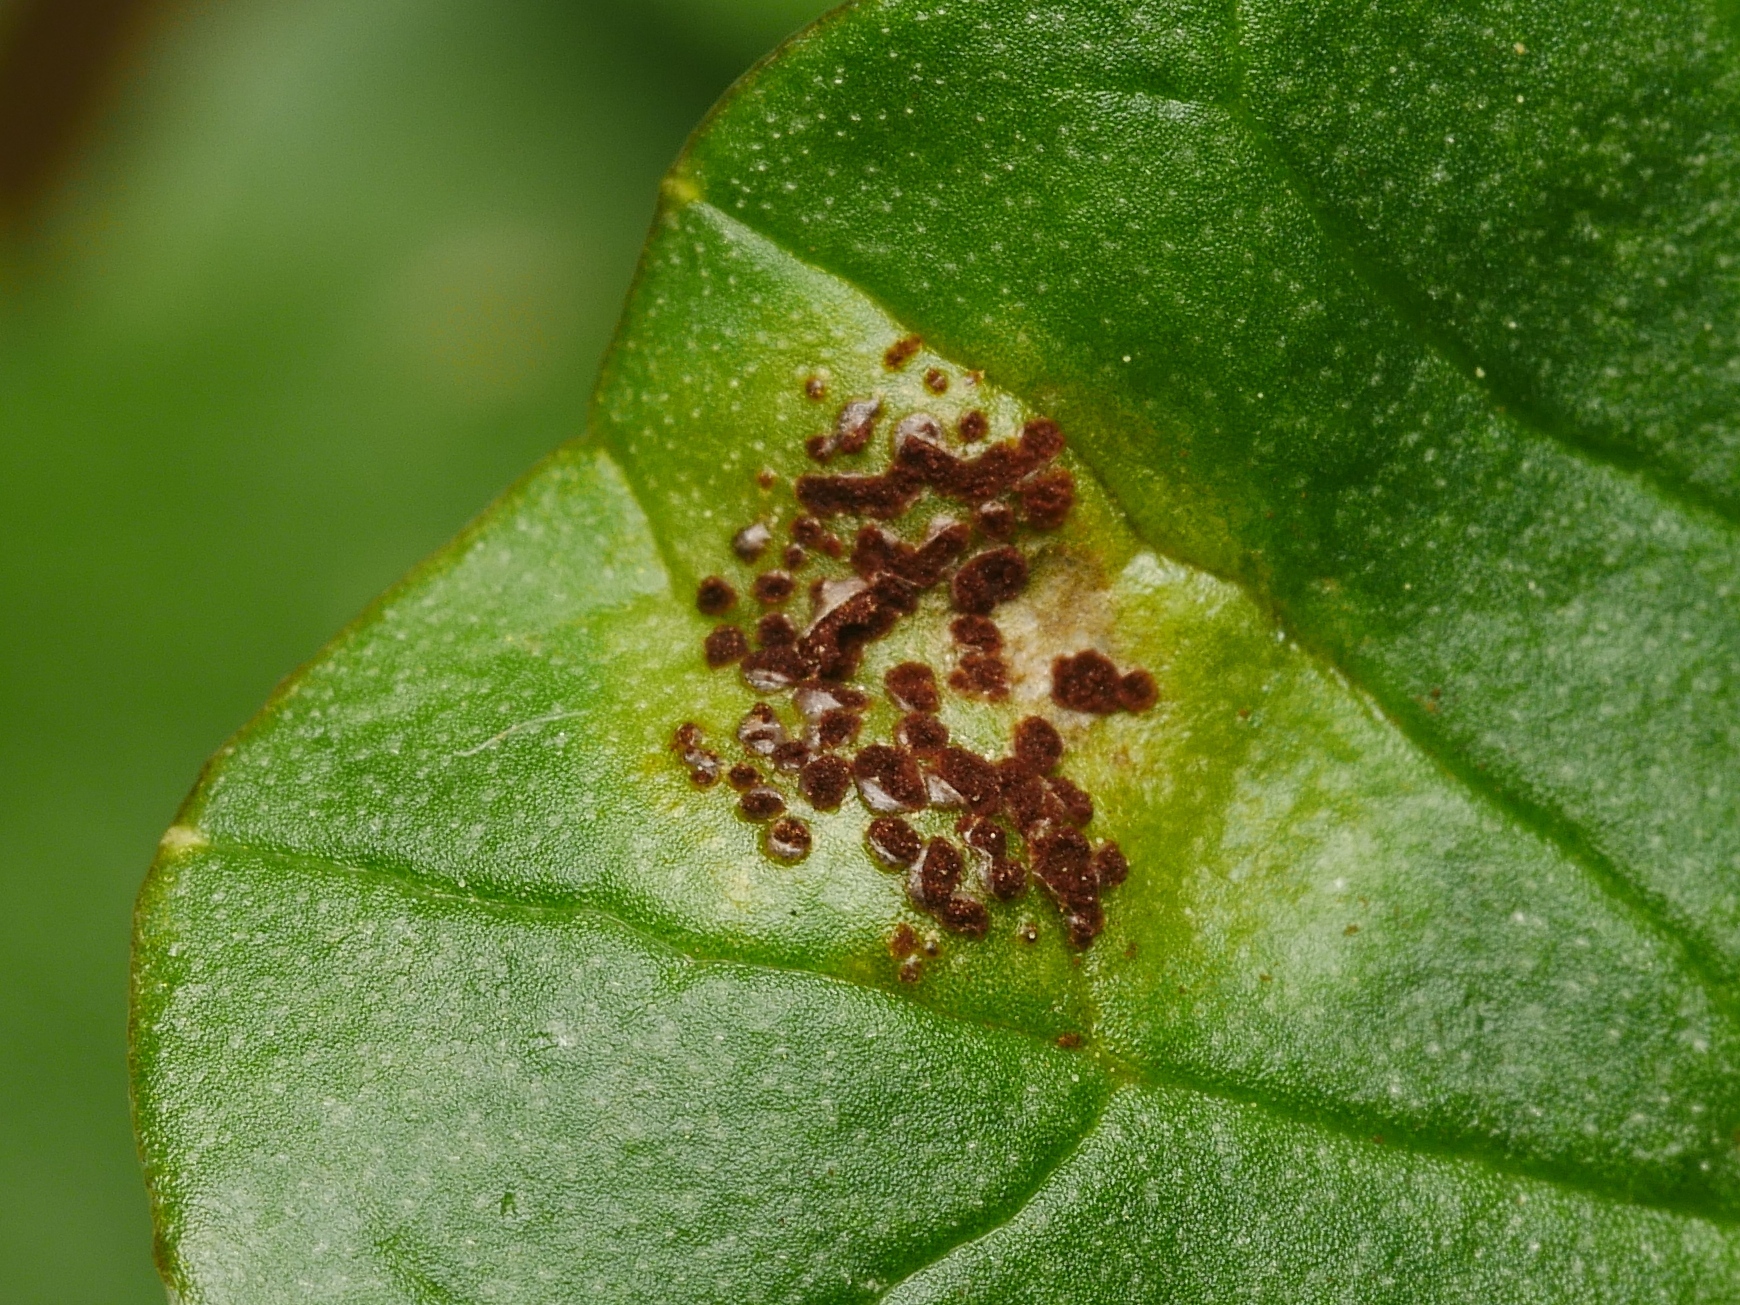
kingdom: Fungi
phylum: Basidiomycota
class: Pucciniomycetes
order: Pucciniales
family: Pucciniaceae
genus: Uromyces
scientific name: Uromyces ficariae
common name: Bitter chocolate rust
